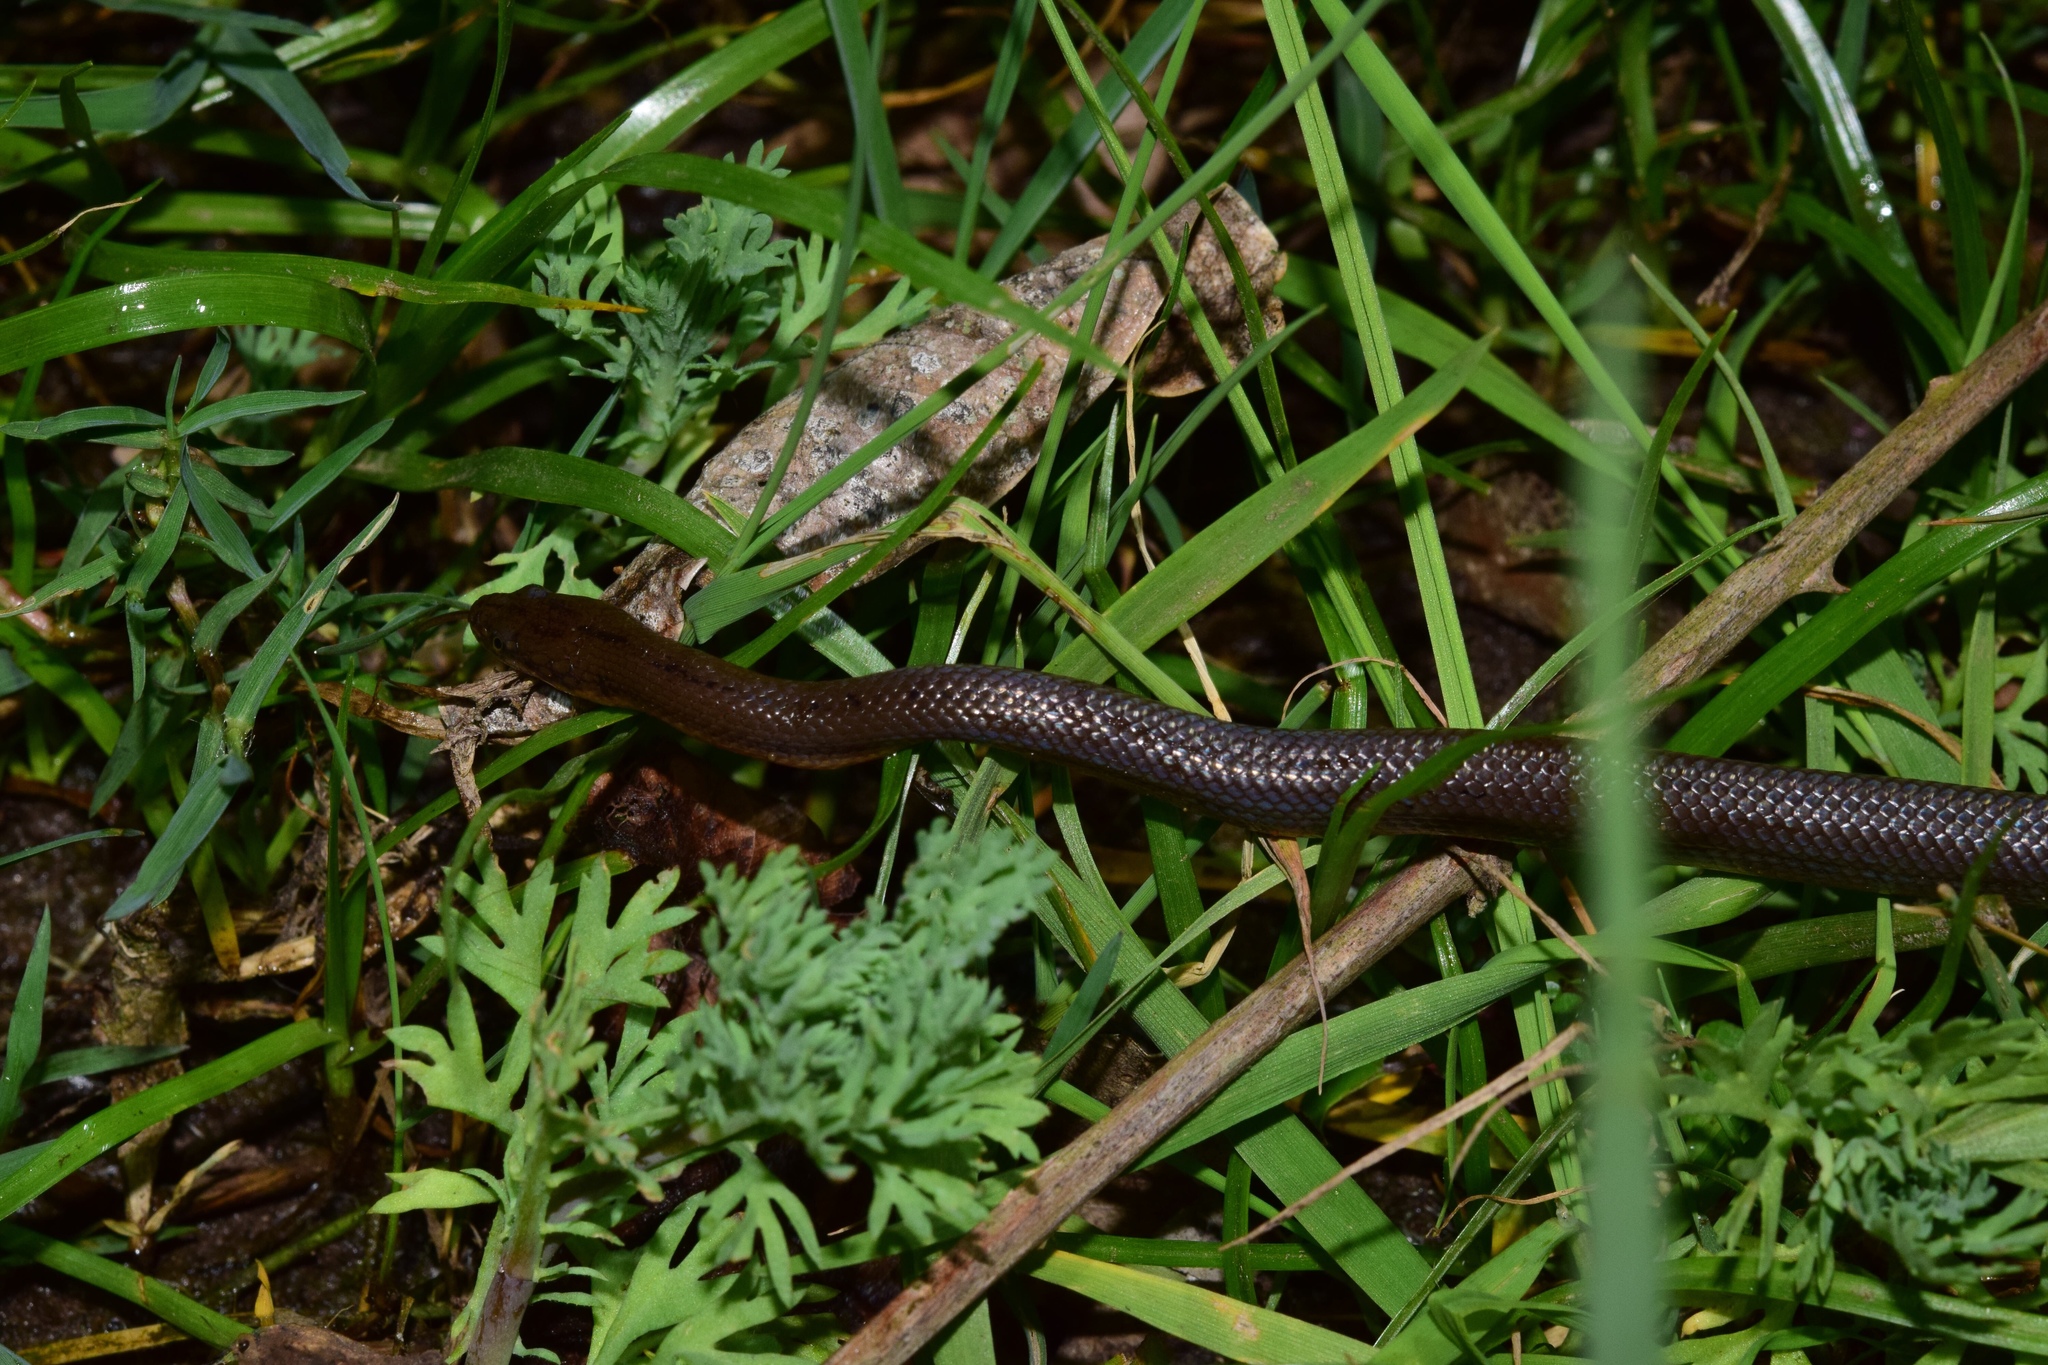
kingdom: Animalia
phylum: Chordata
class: Squamata
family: Lamprophiidae
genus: Lycodonomorphus
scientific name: Lycodonomorphus laevissimus
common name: Dusky-bellied water snake
